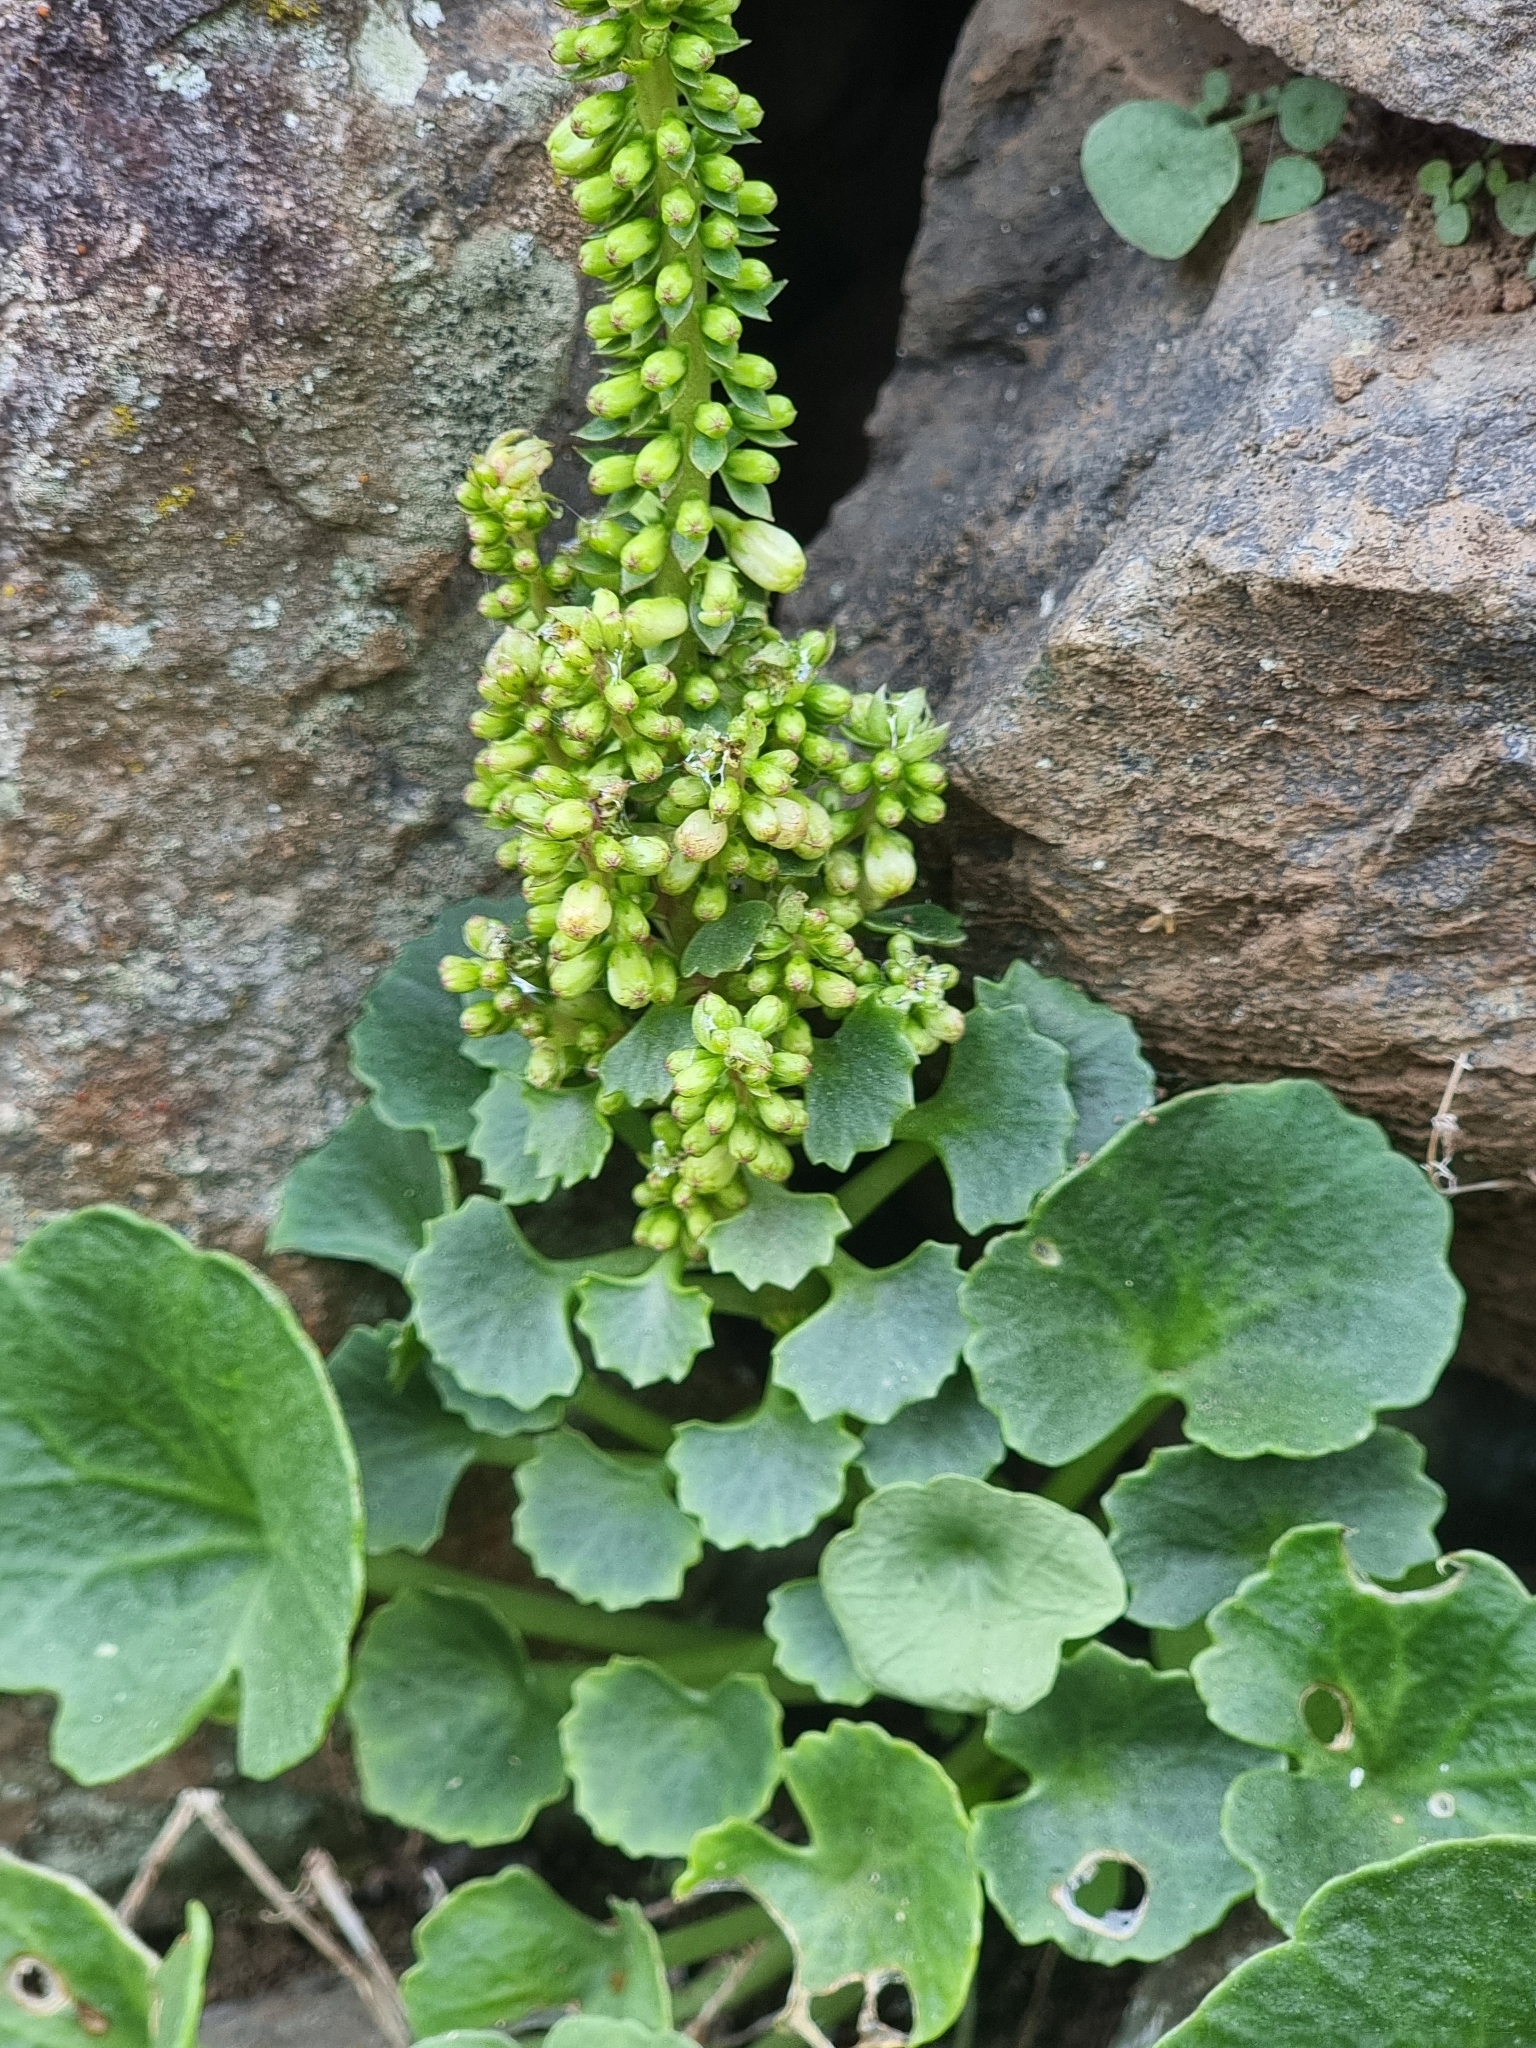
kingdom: Plantae
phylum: Tracheophyta
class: Magnoliopsida
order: Saxifragales
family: Crassulaceae
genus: Umbilicus
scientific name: Umbilicus rupestris
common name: Navelwort
